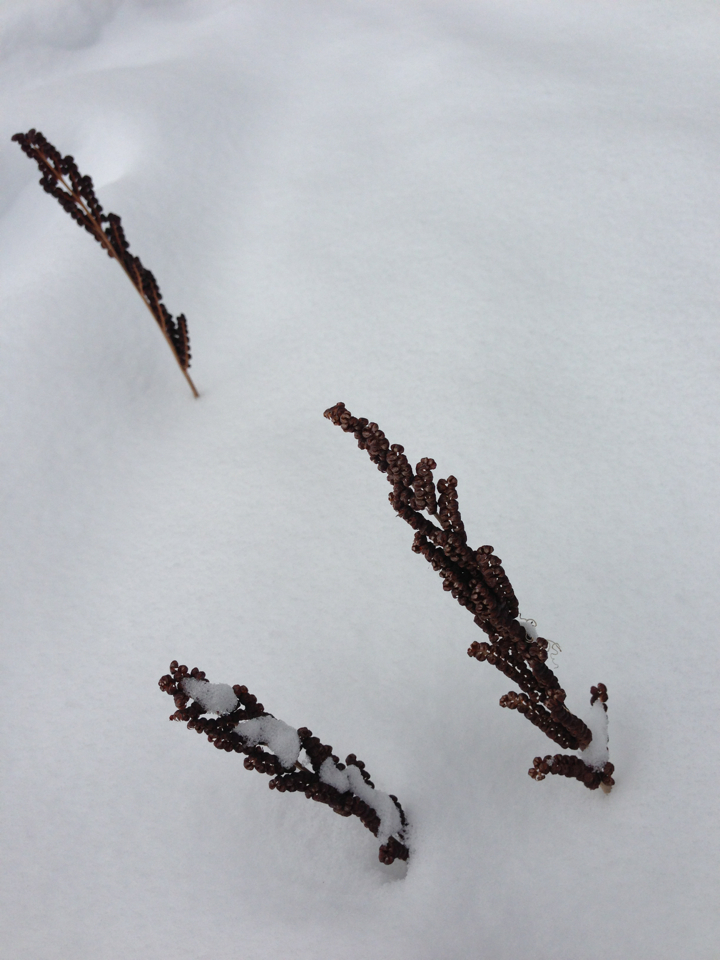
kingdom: Plantae
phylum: Tracheophyta
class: Polypodiopsida
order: Polypodiales
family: Onocleaceae
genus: Onoclea
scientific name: Onoclea sensibilis
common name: Sensitive fern
